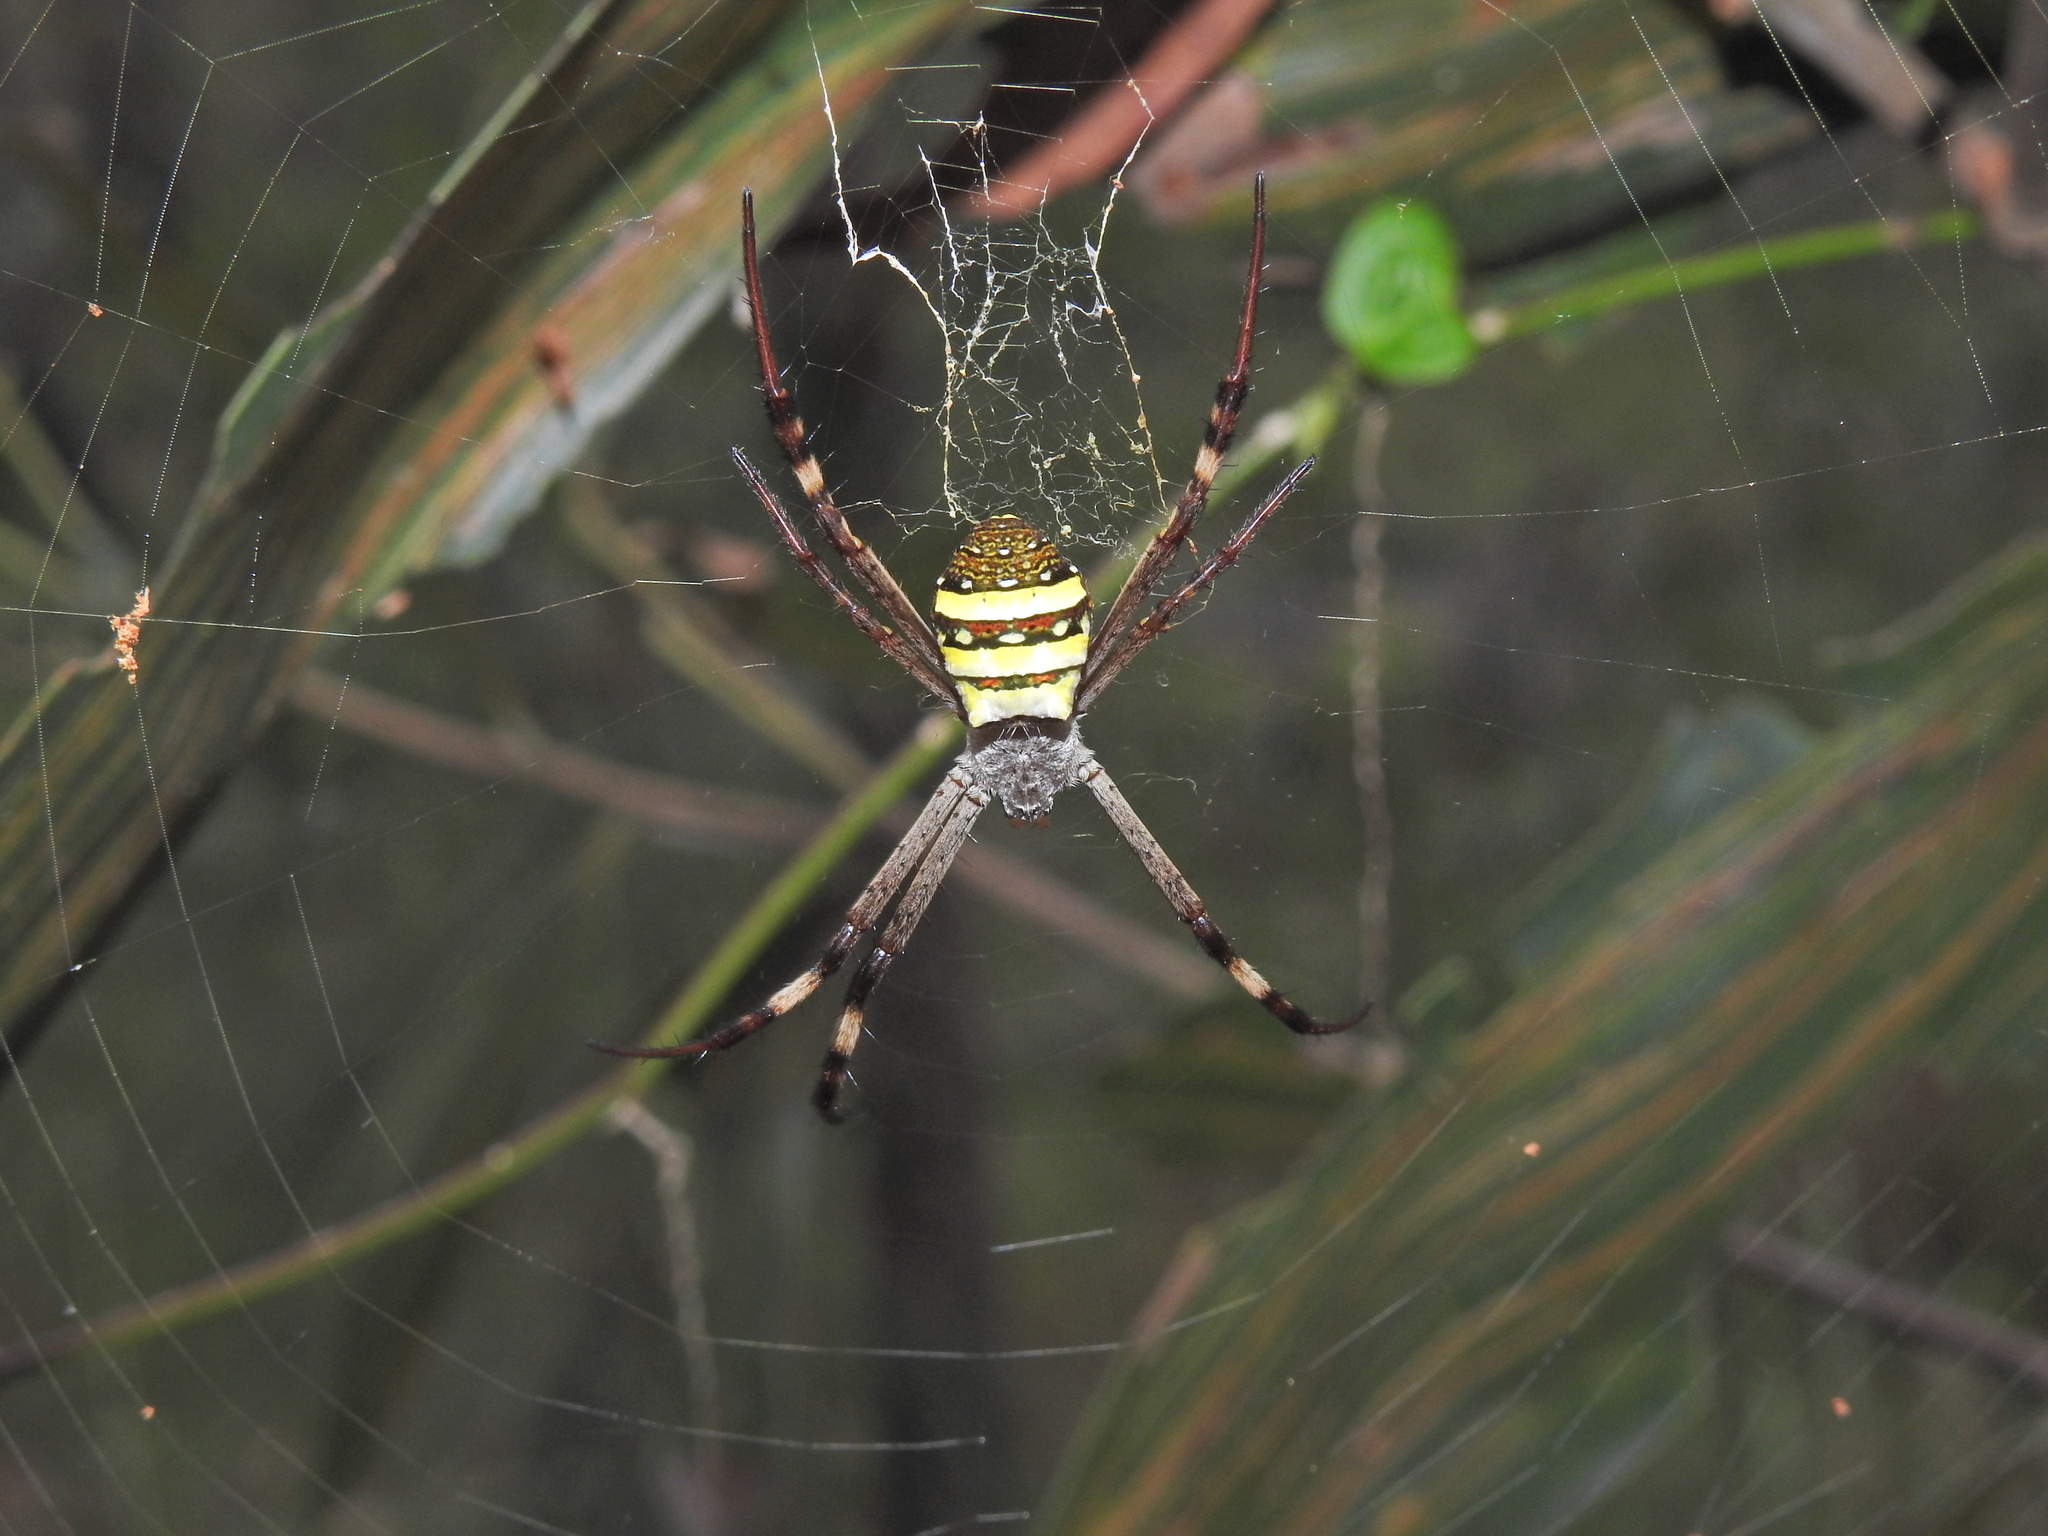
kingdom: Animalia
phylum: Arthropoda
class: Arachnida
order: Araneae
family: Araneidae
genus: Argiope
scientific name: Argiope keyserlingi
